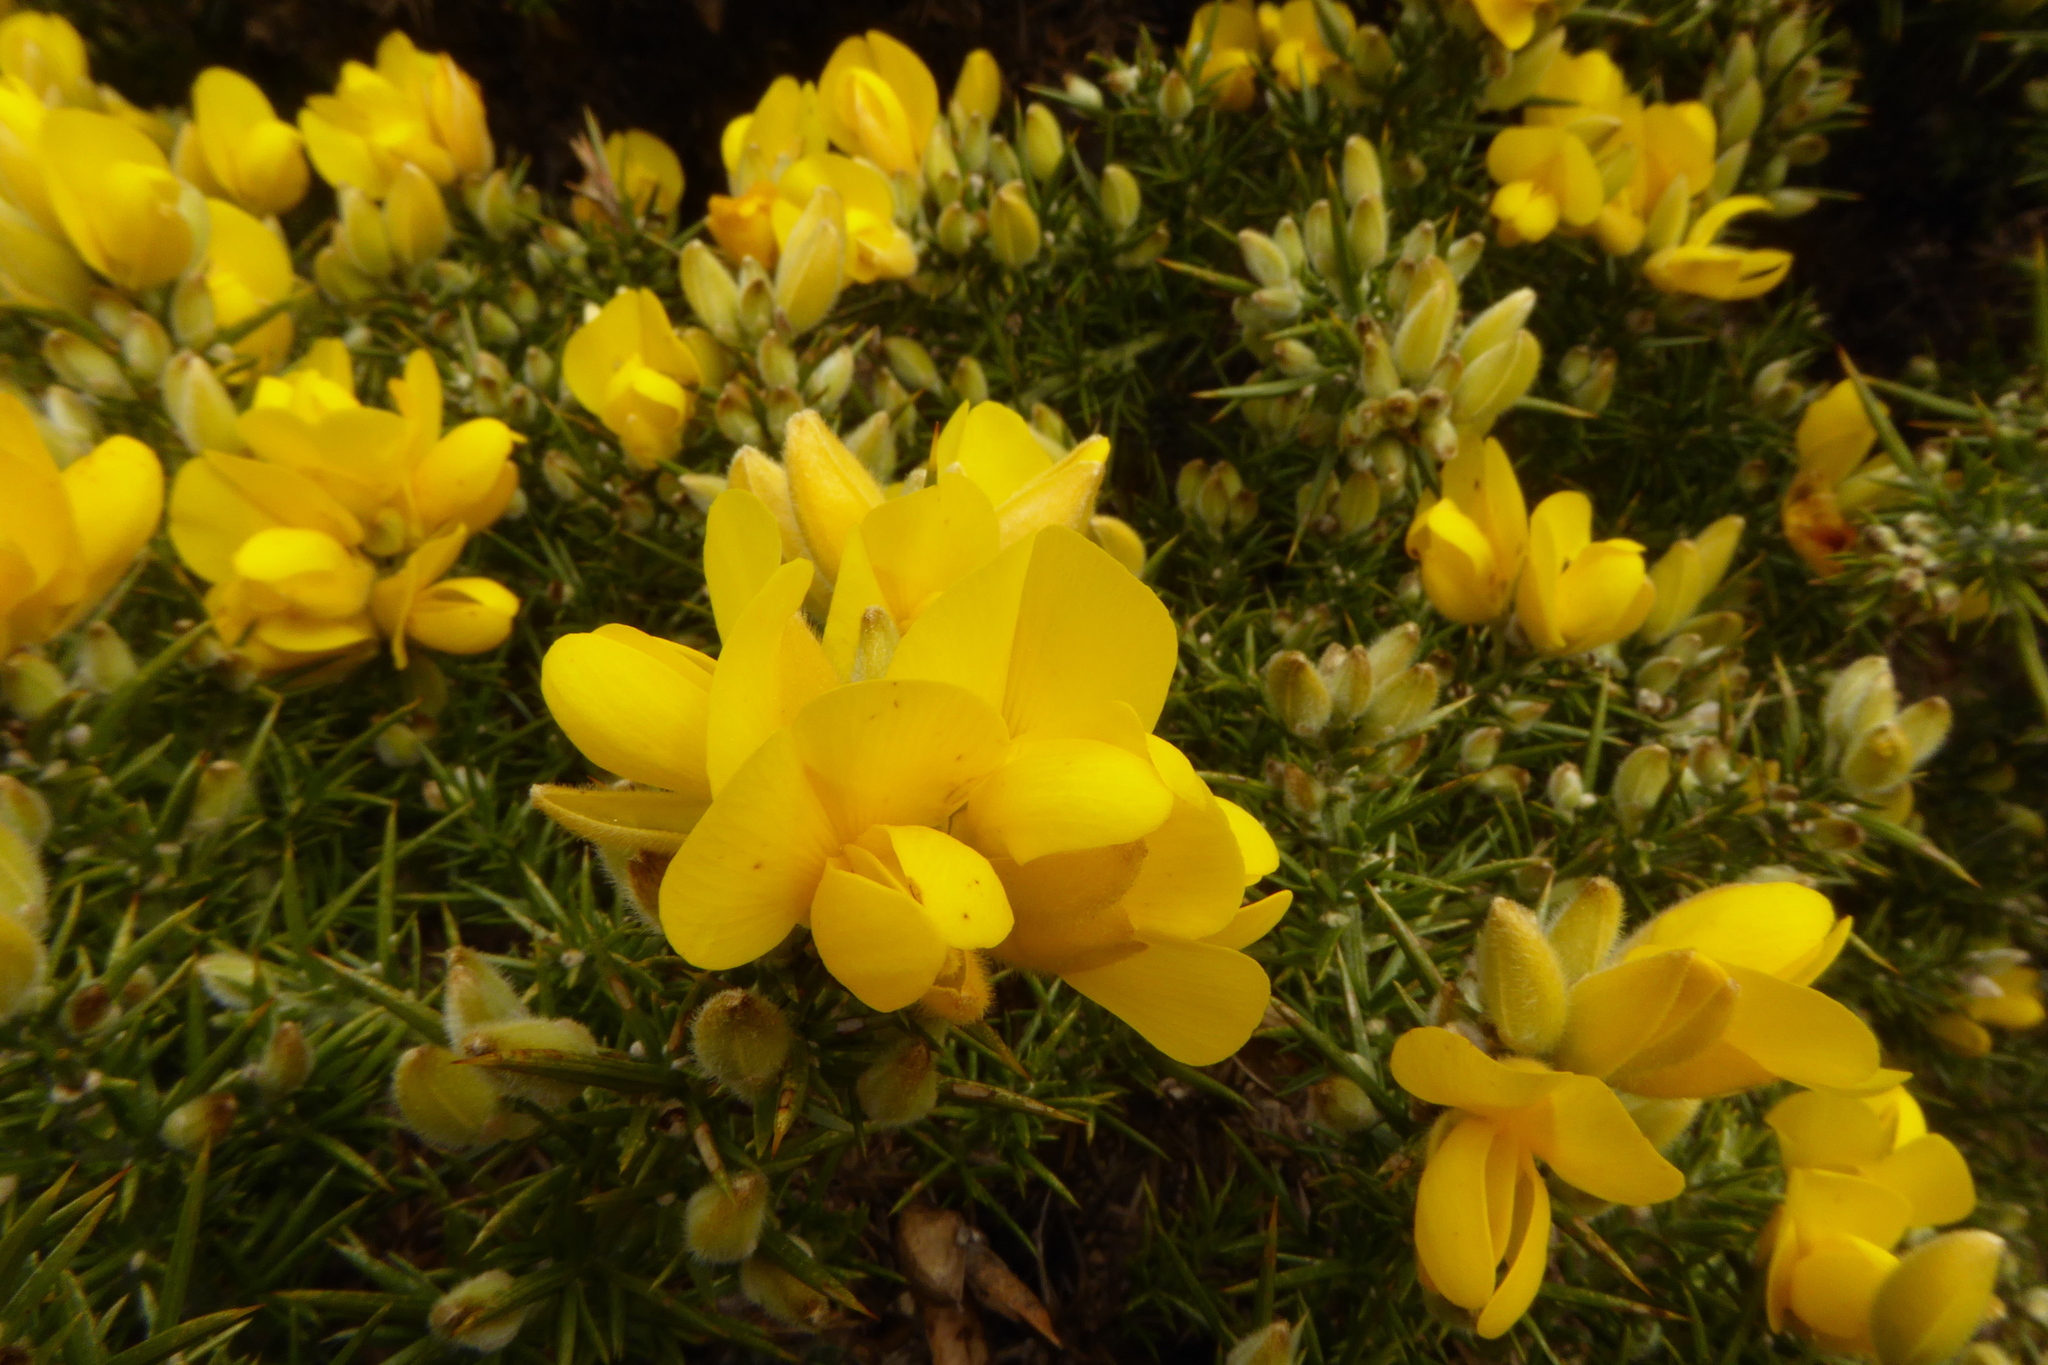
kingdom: Plantae
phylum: Tracheophyta
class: Magnoliopsida
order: Fabales
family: Fabaceae
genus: Ulex
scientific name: Ulex europaeus
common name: Common gorse
